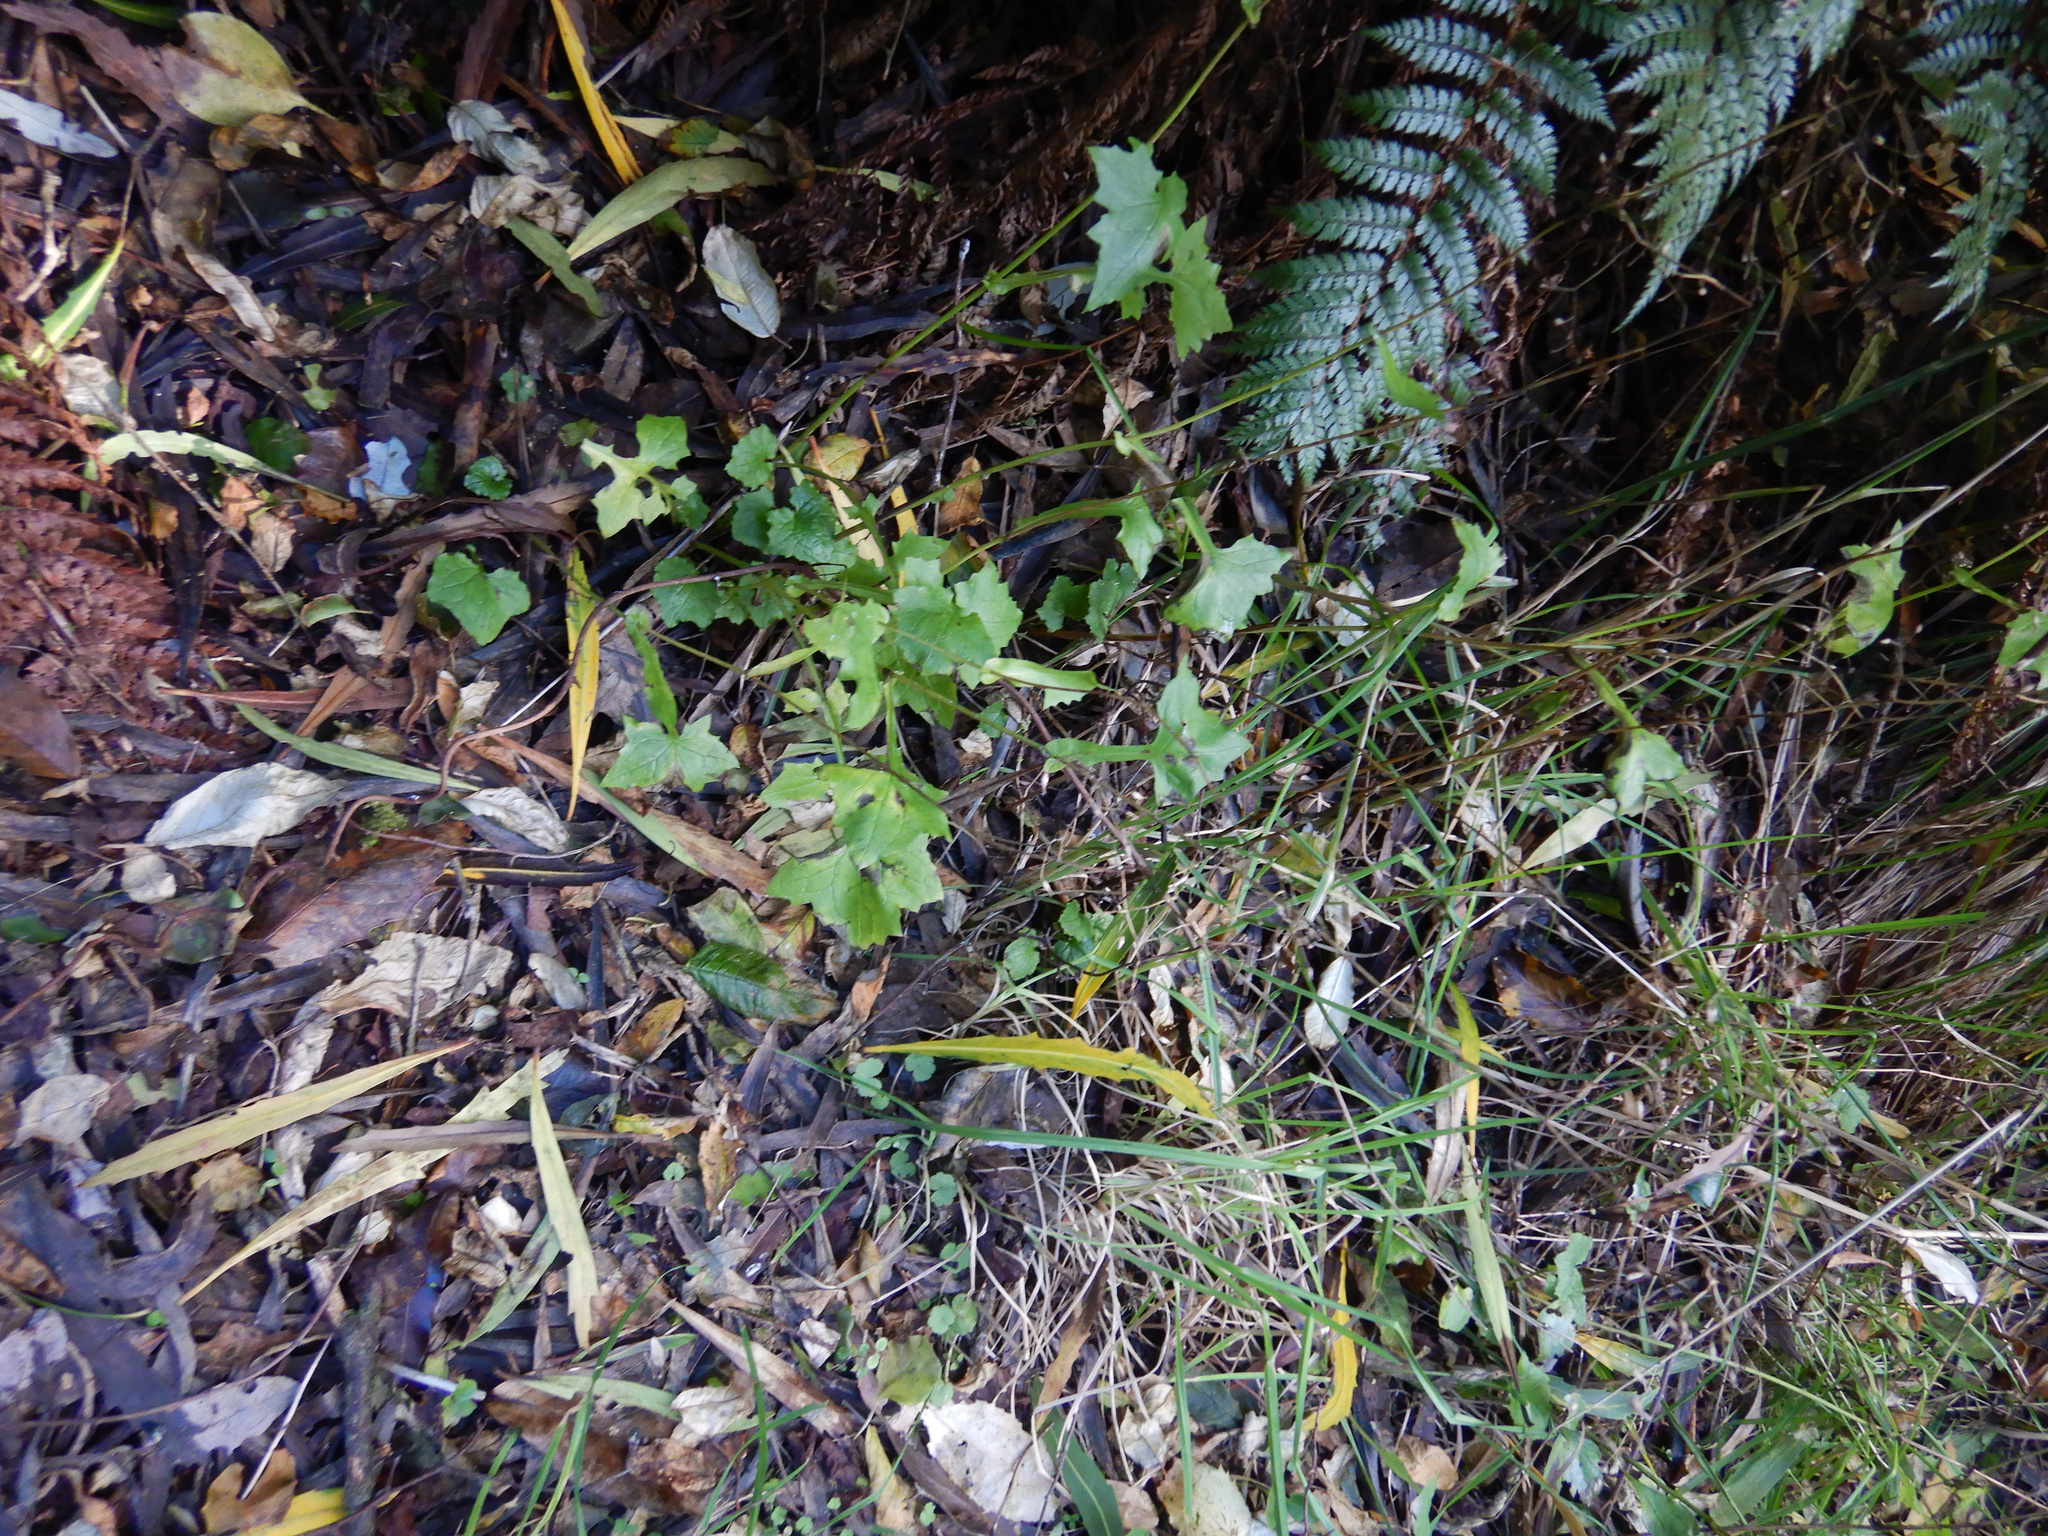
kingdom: Plantae
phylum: Tracheophyta
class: Magnoliopsida
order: Asterales
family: Asteraceae
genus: Mycelis
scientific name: Mycelis muralis
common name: Wall lettuce
